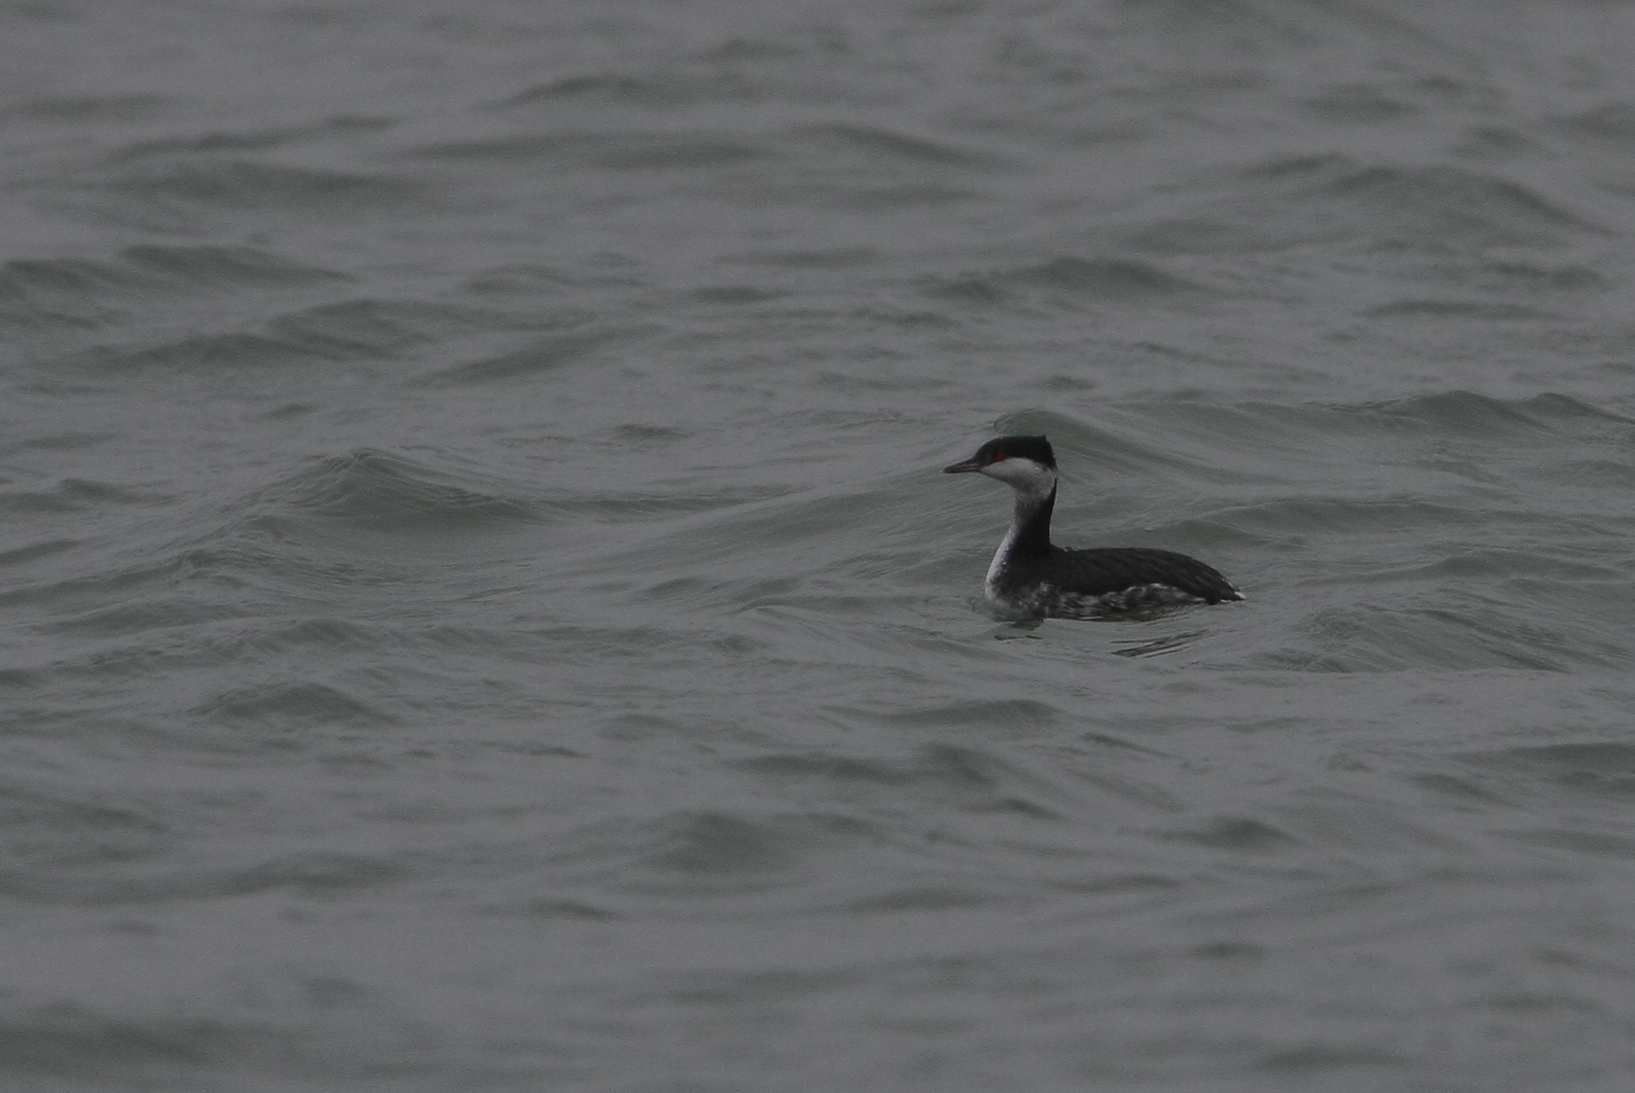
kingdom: Animalia
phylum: Chordata
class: Aves
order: Podicipediformes
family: Podicipedidae
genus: Podiceps
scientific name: Podiceps auritus
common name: Horned grebe
